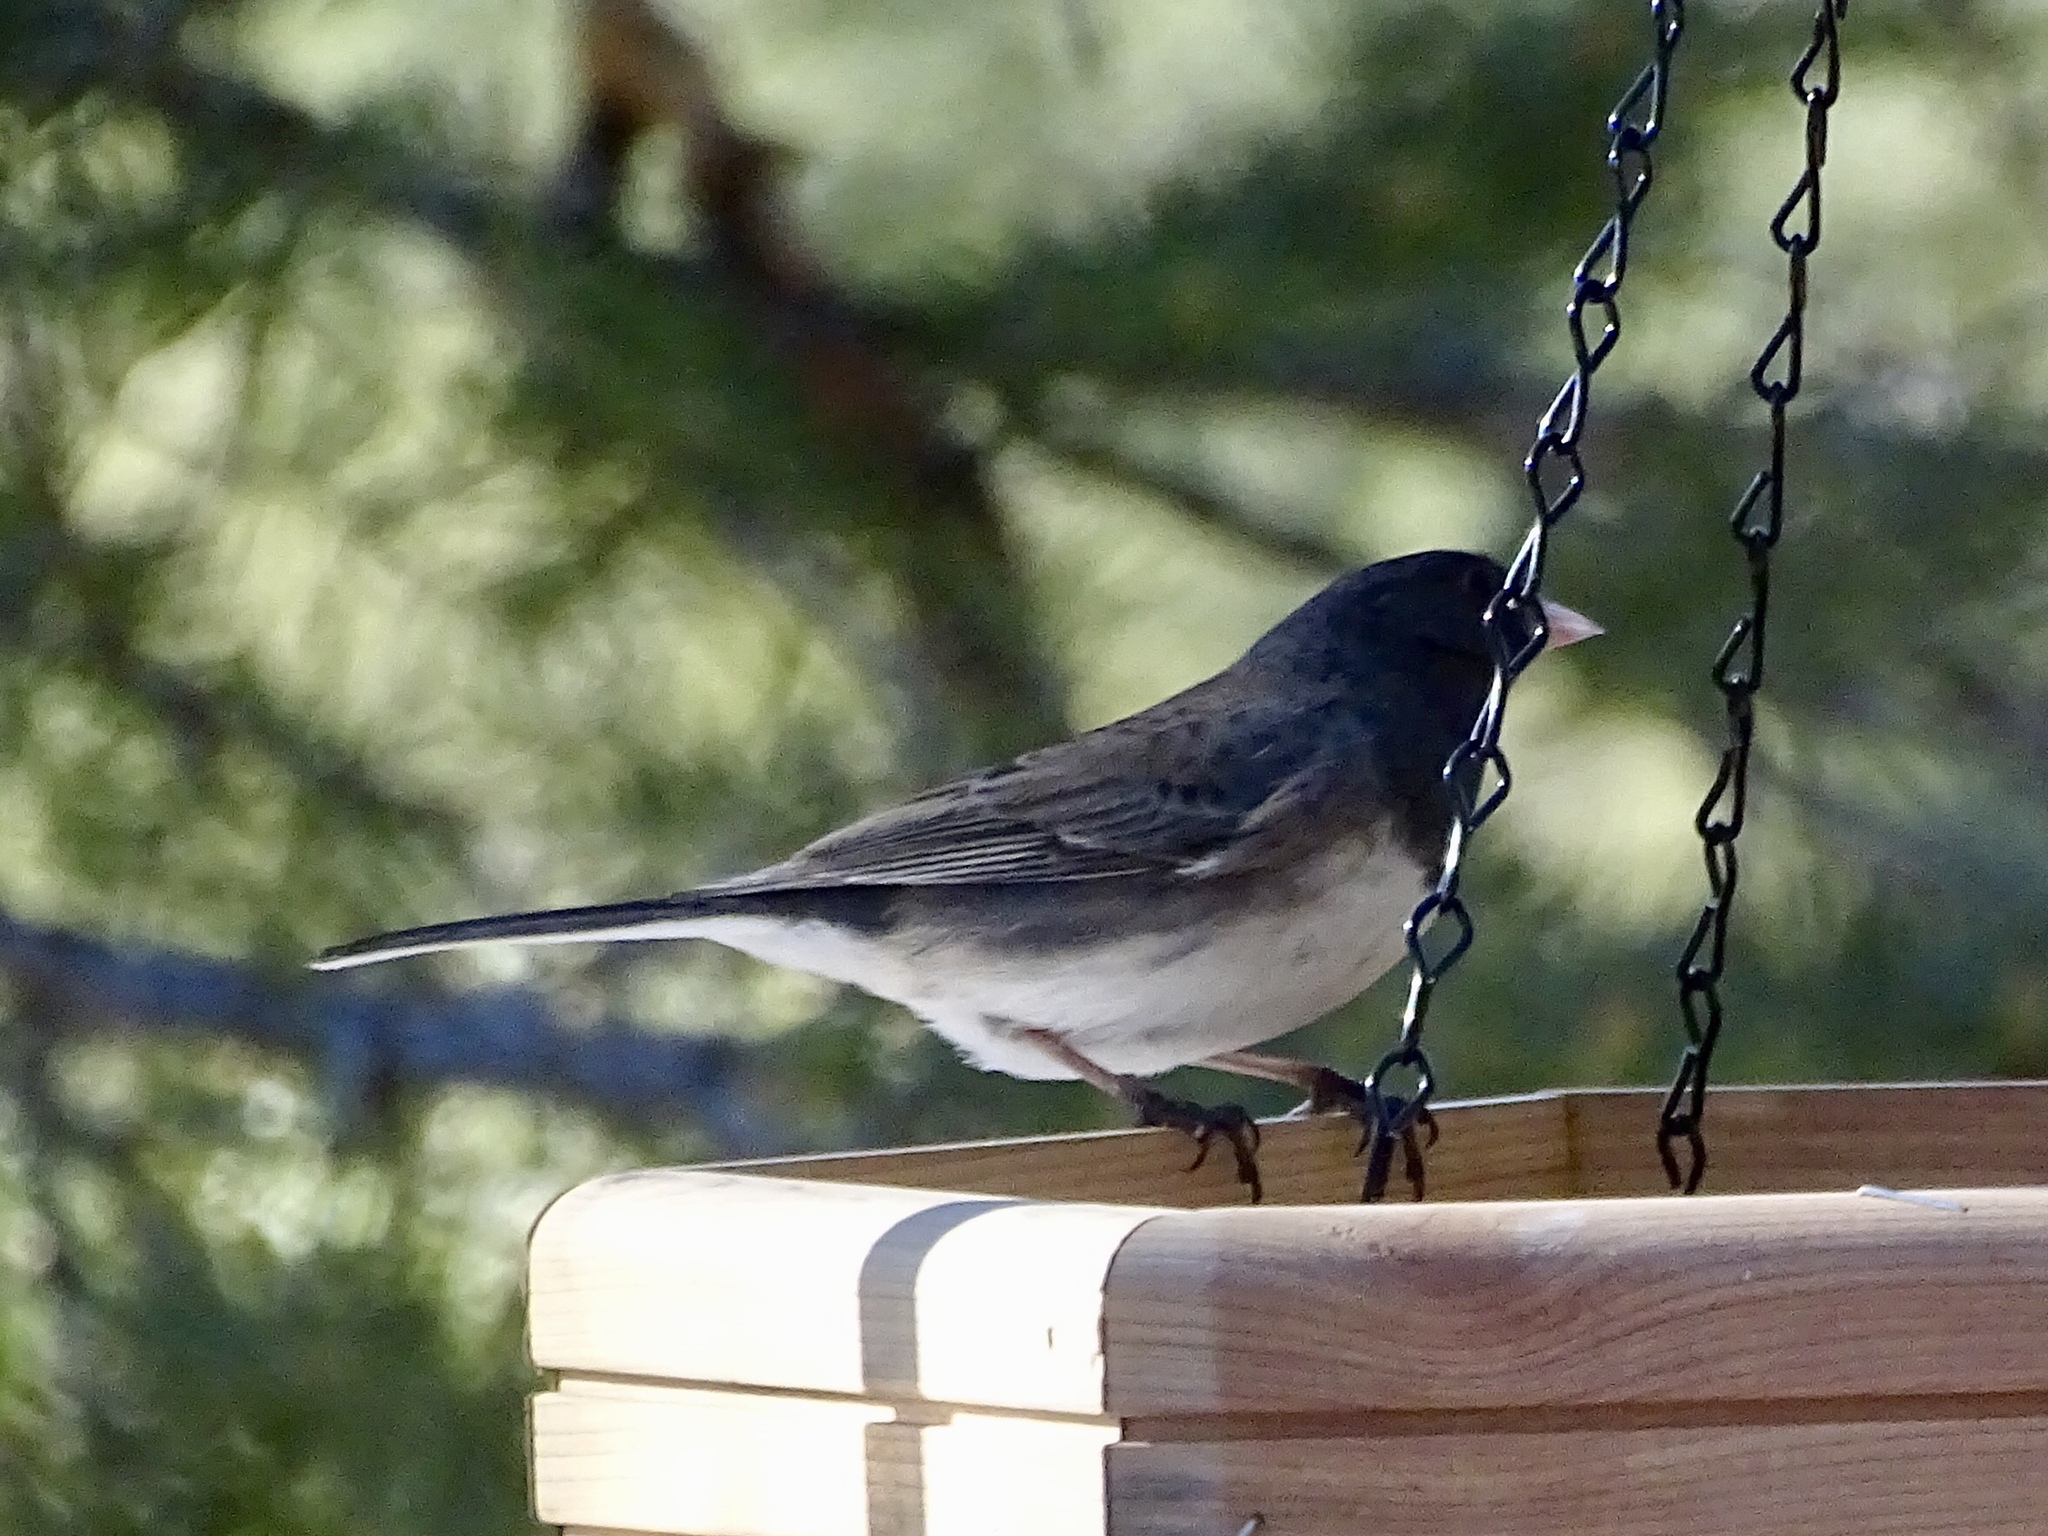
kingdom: Animalia
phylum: Chordata
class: Aves
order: Passeriformes
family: Passerellidae
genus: Junco
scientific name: Junco hyemalis
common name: Dark-eyed junco
